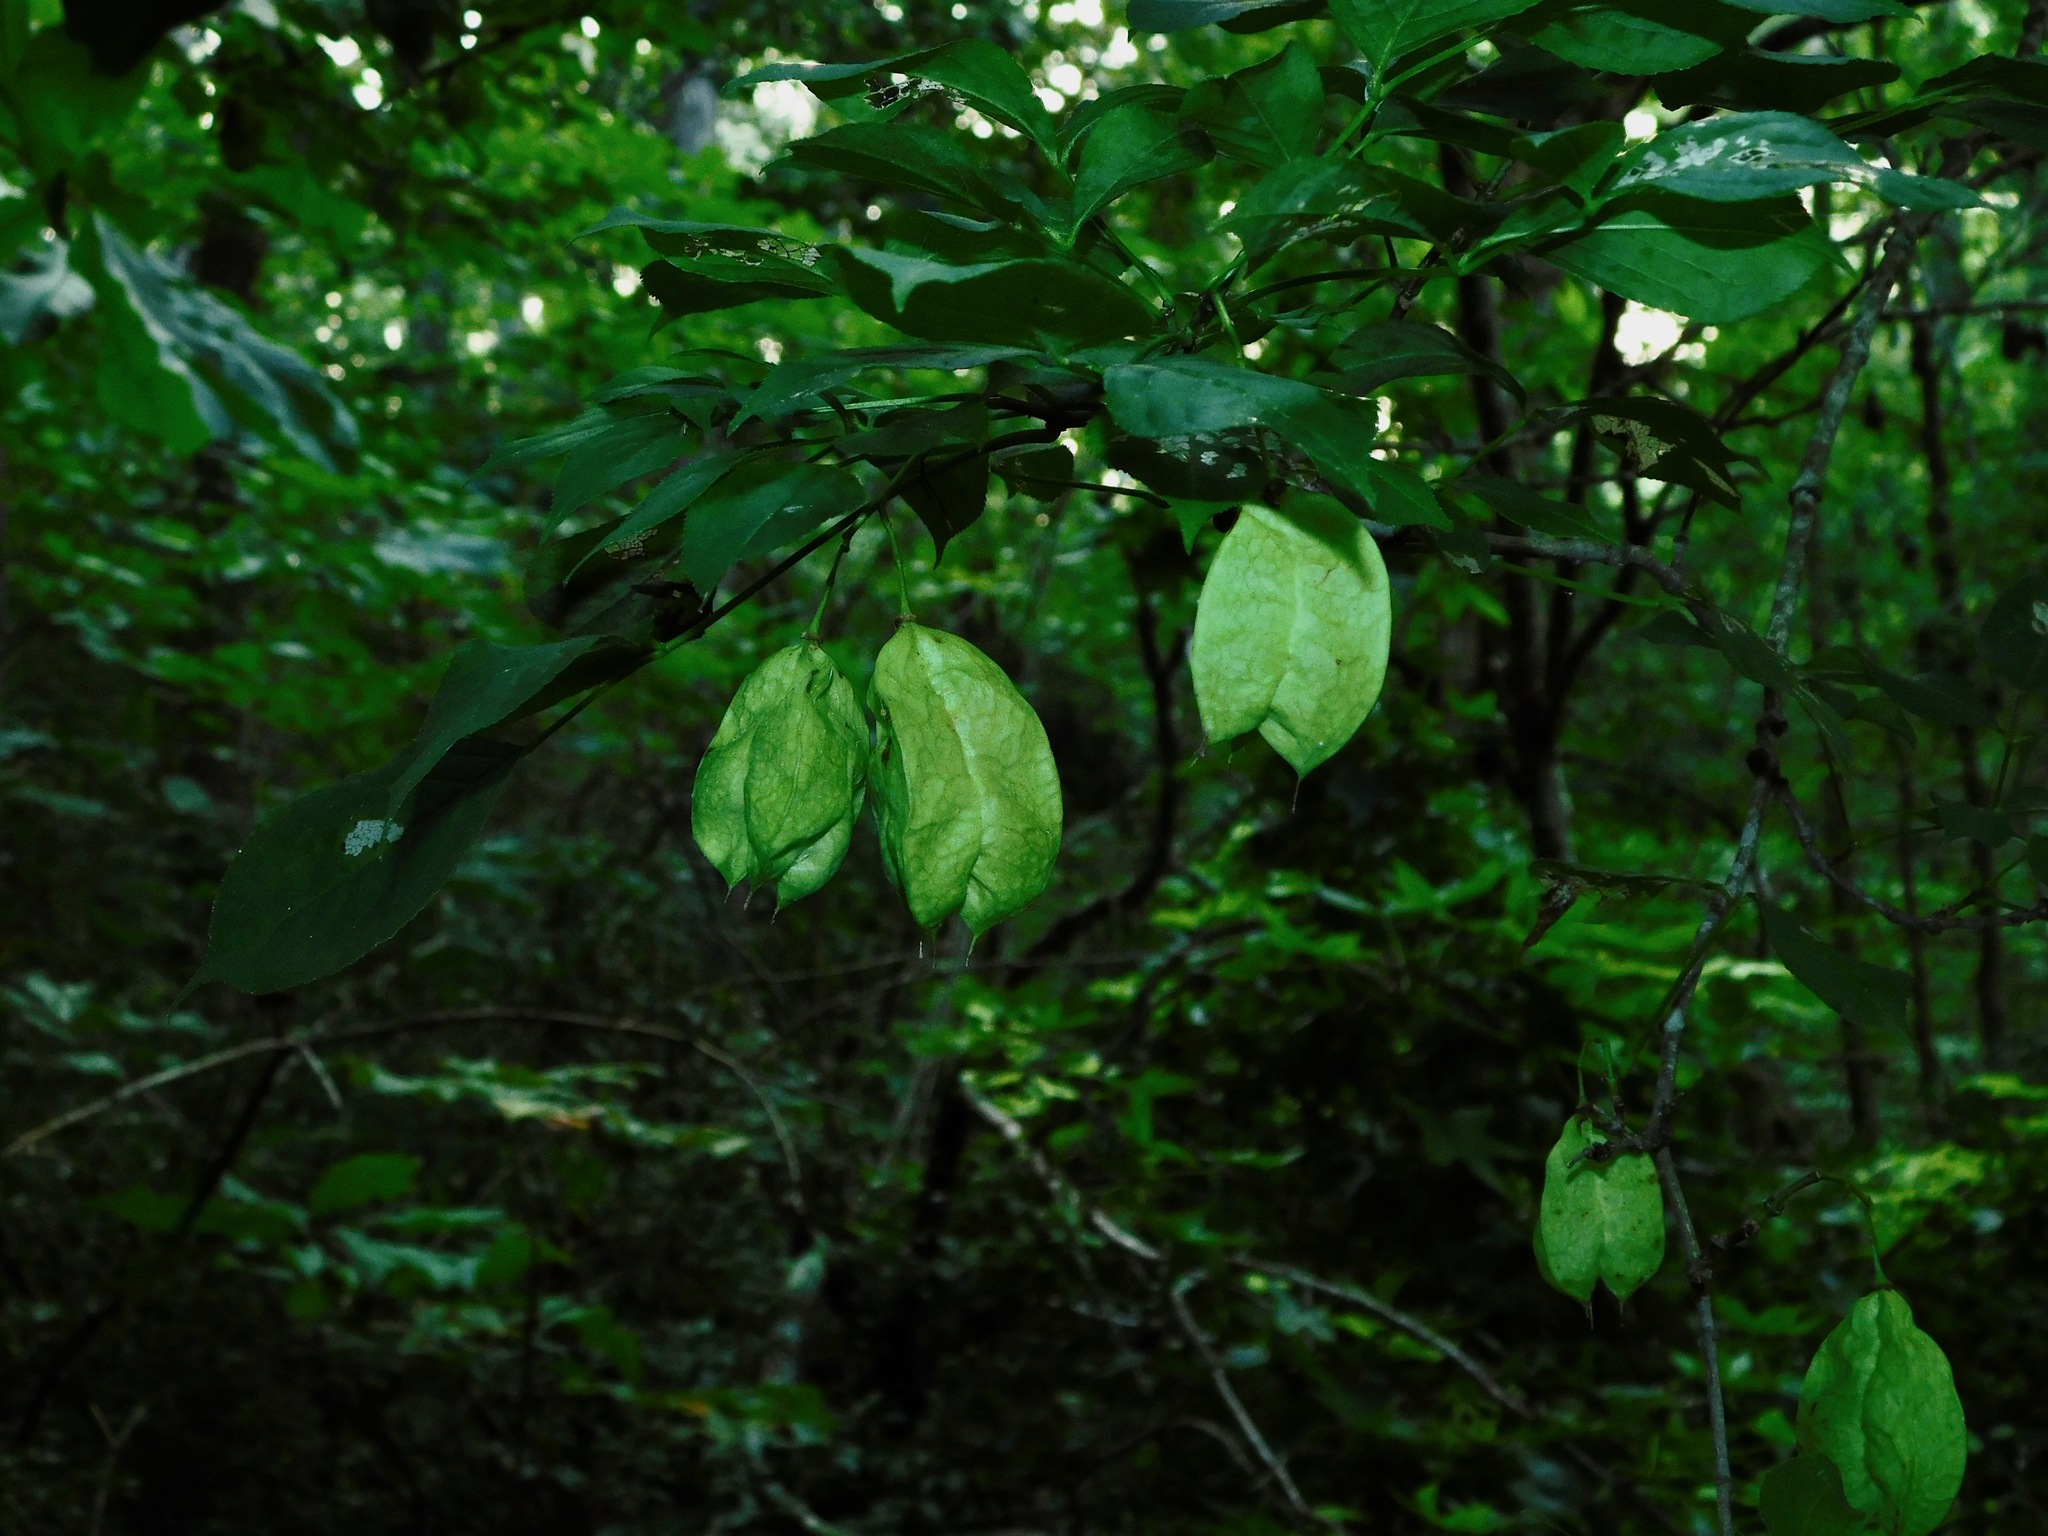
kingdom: Plantae
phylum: Tracheophyta
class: Magnoliopsida
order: Crossosomatales
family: Staphyleaceae
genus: Staphylea
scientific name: Staphylea trifolia
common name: American bladdernut
